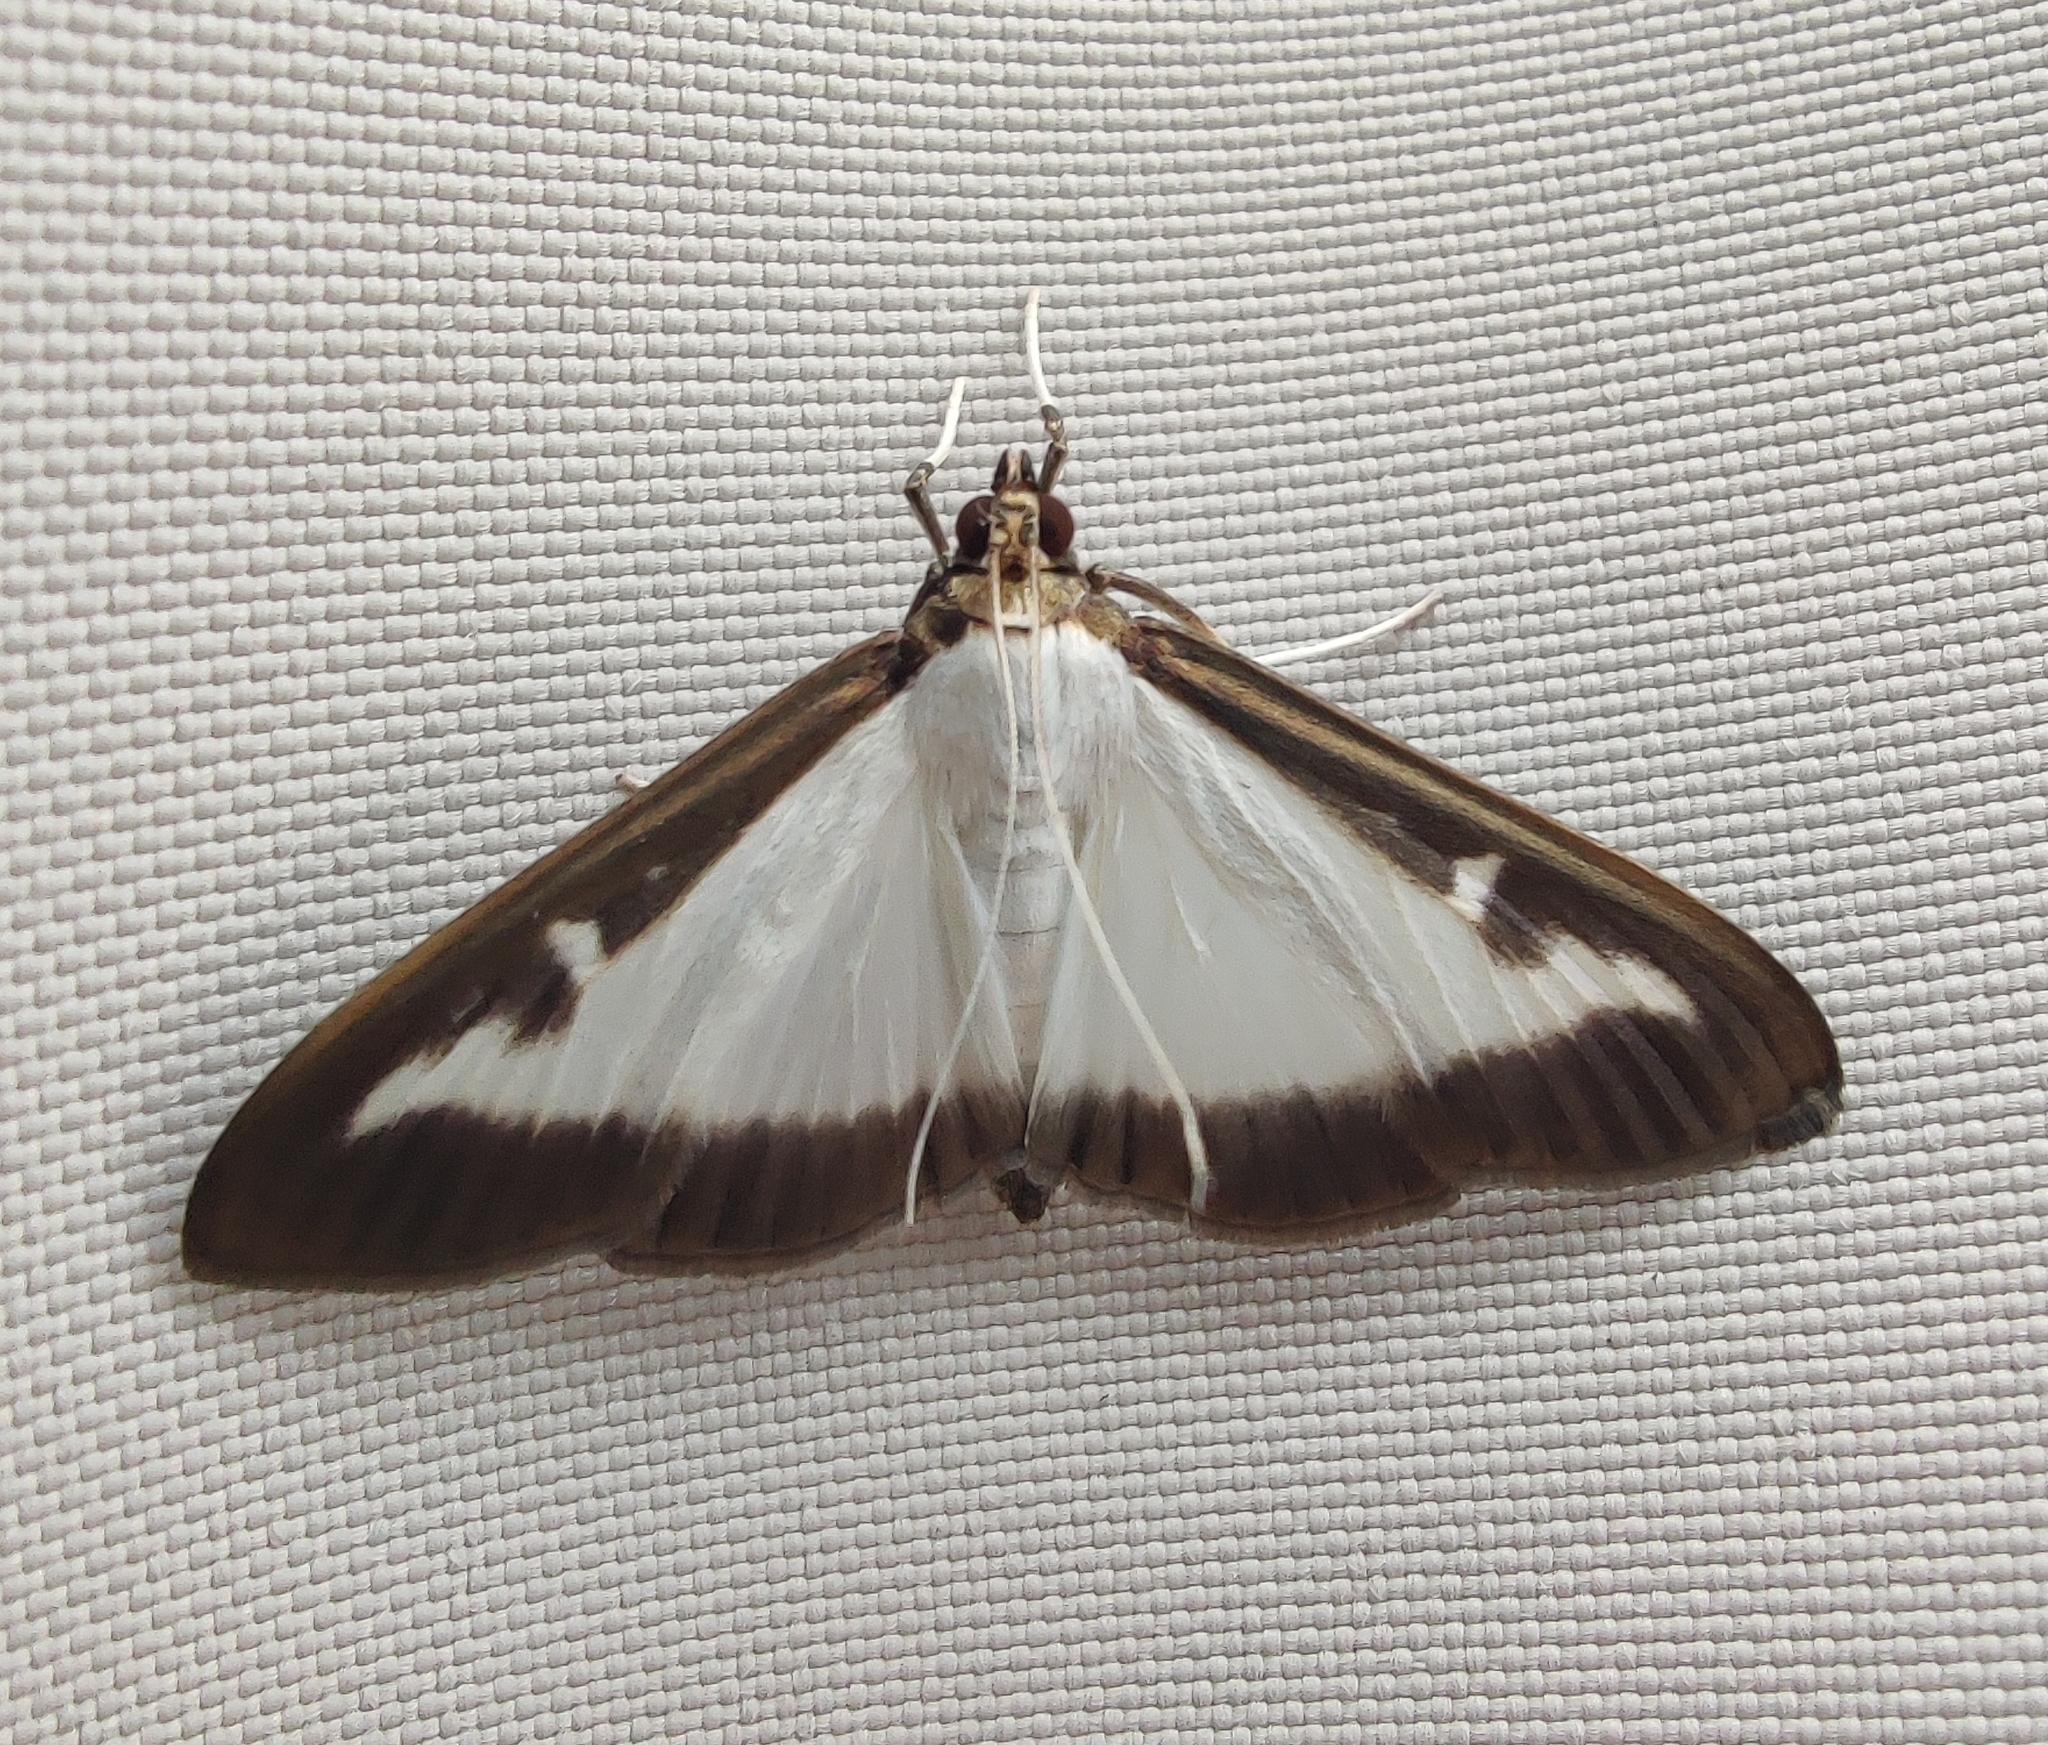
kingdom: Animalia
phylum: Arthropoda
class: Insecta
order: Lepidoptera
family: Crambidae
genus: Cydalima
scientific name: Cydalima perspectalis
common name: Box tree moth
